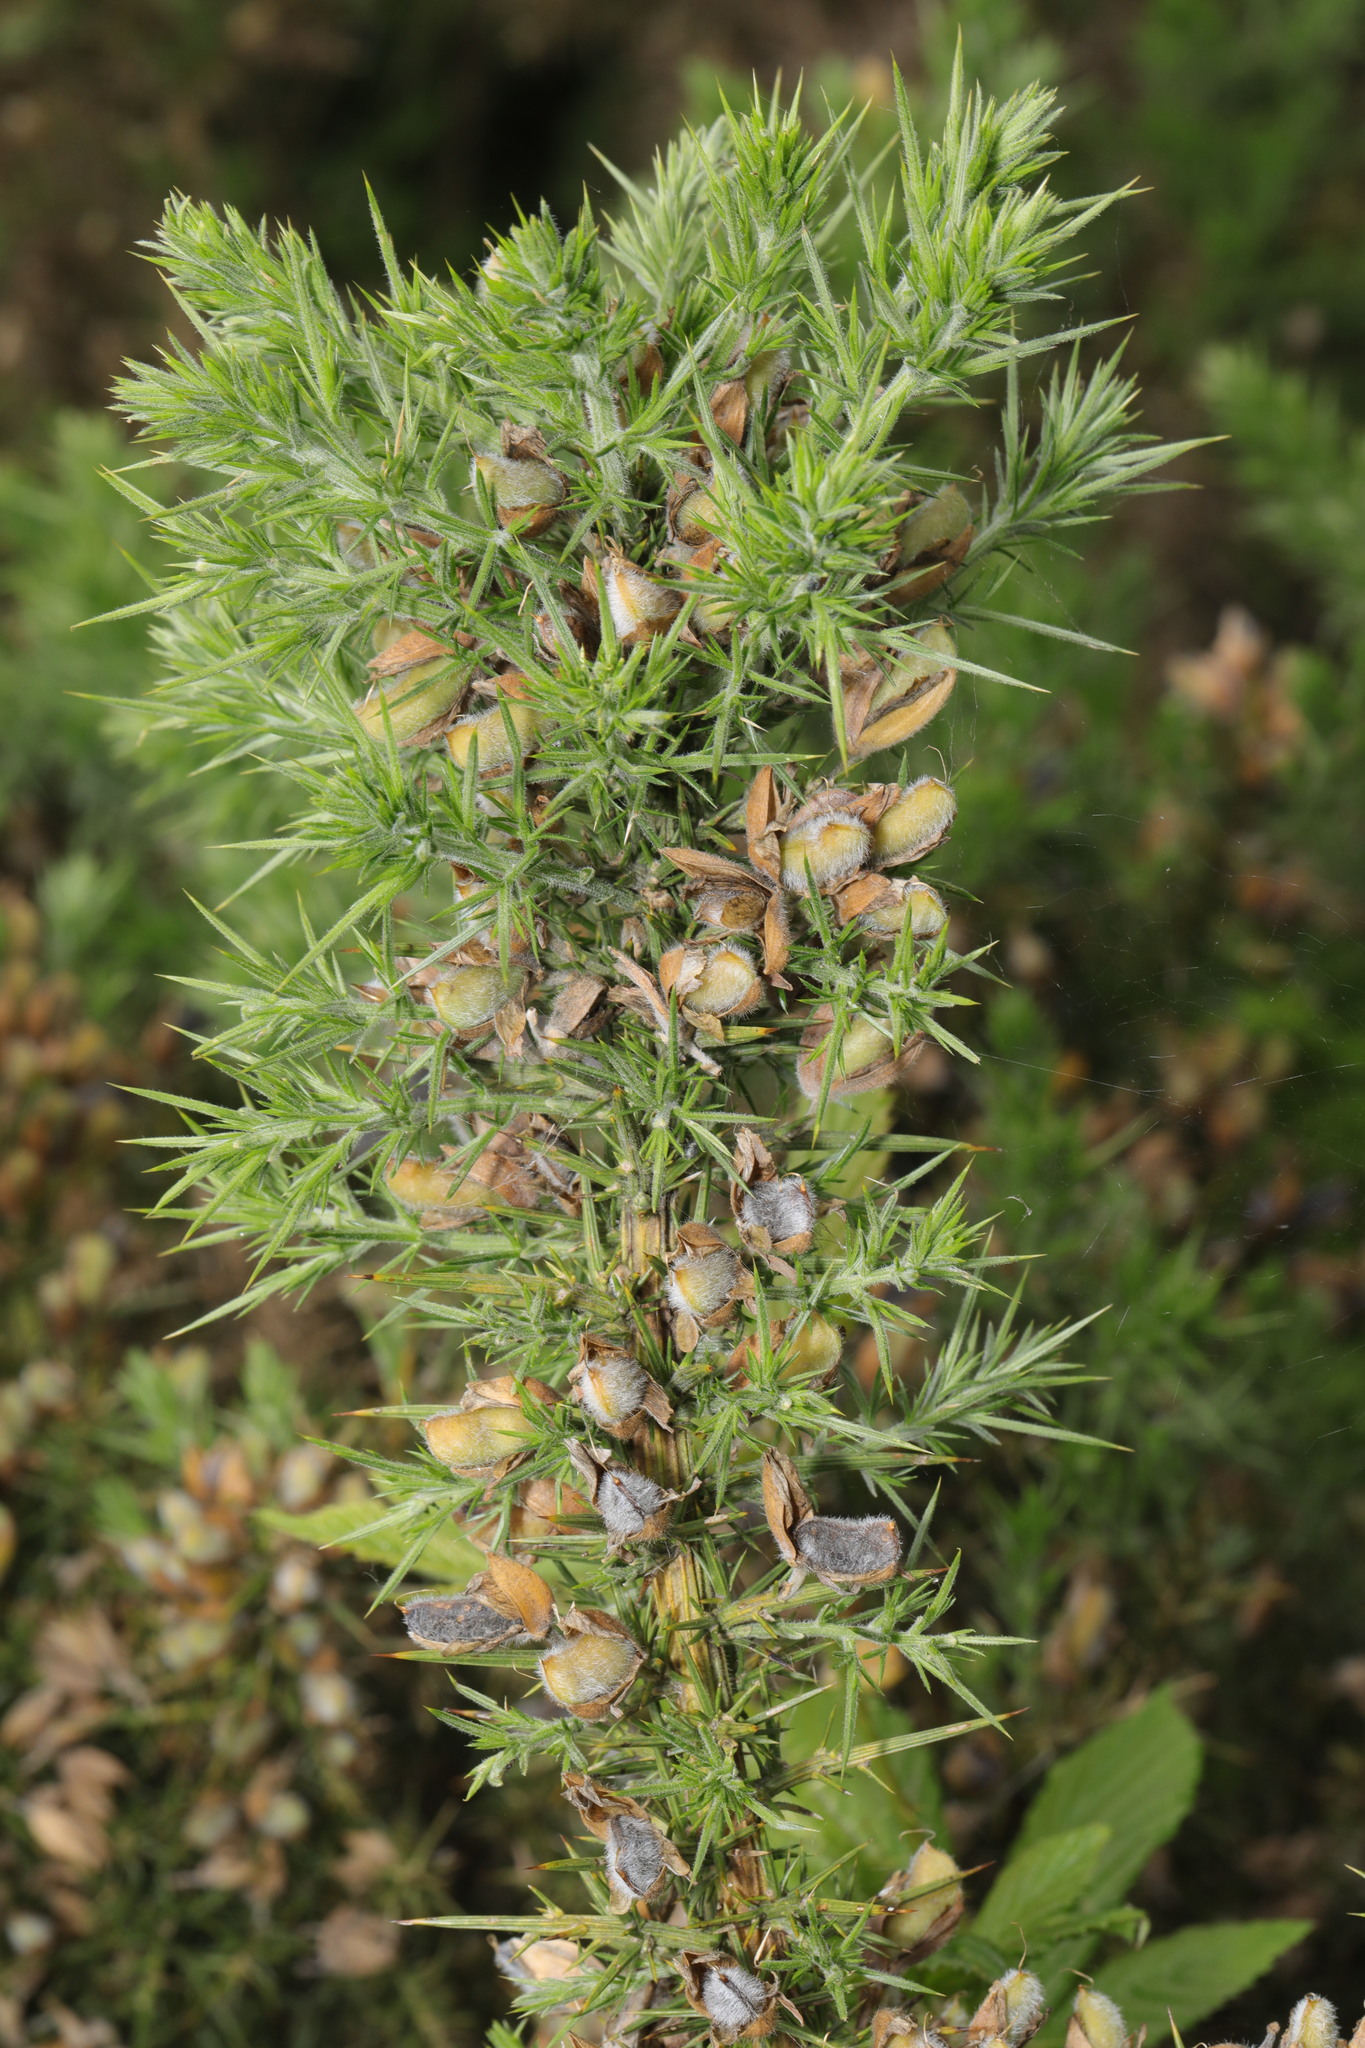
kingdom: Plantae
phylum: Tracheophyta
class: Magnoliopsida
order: Fabales
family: Fabaceae
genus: Ulex
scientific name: Ulex europaeus
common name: Common gorse
